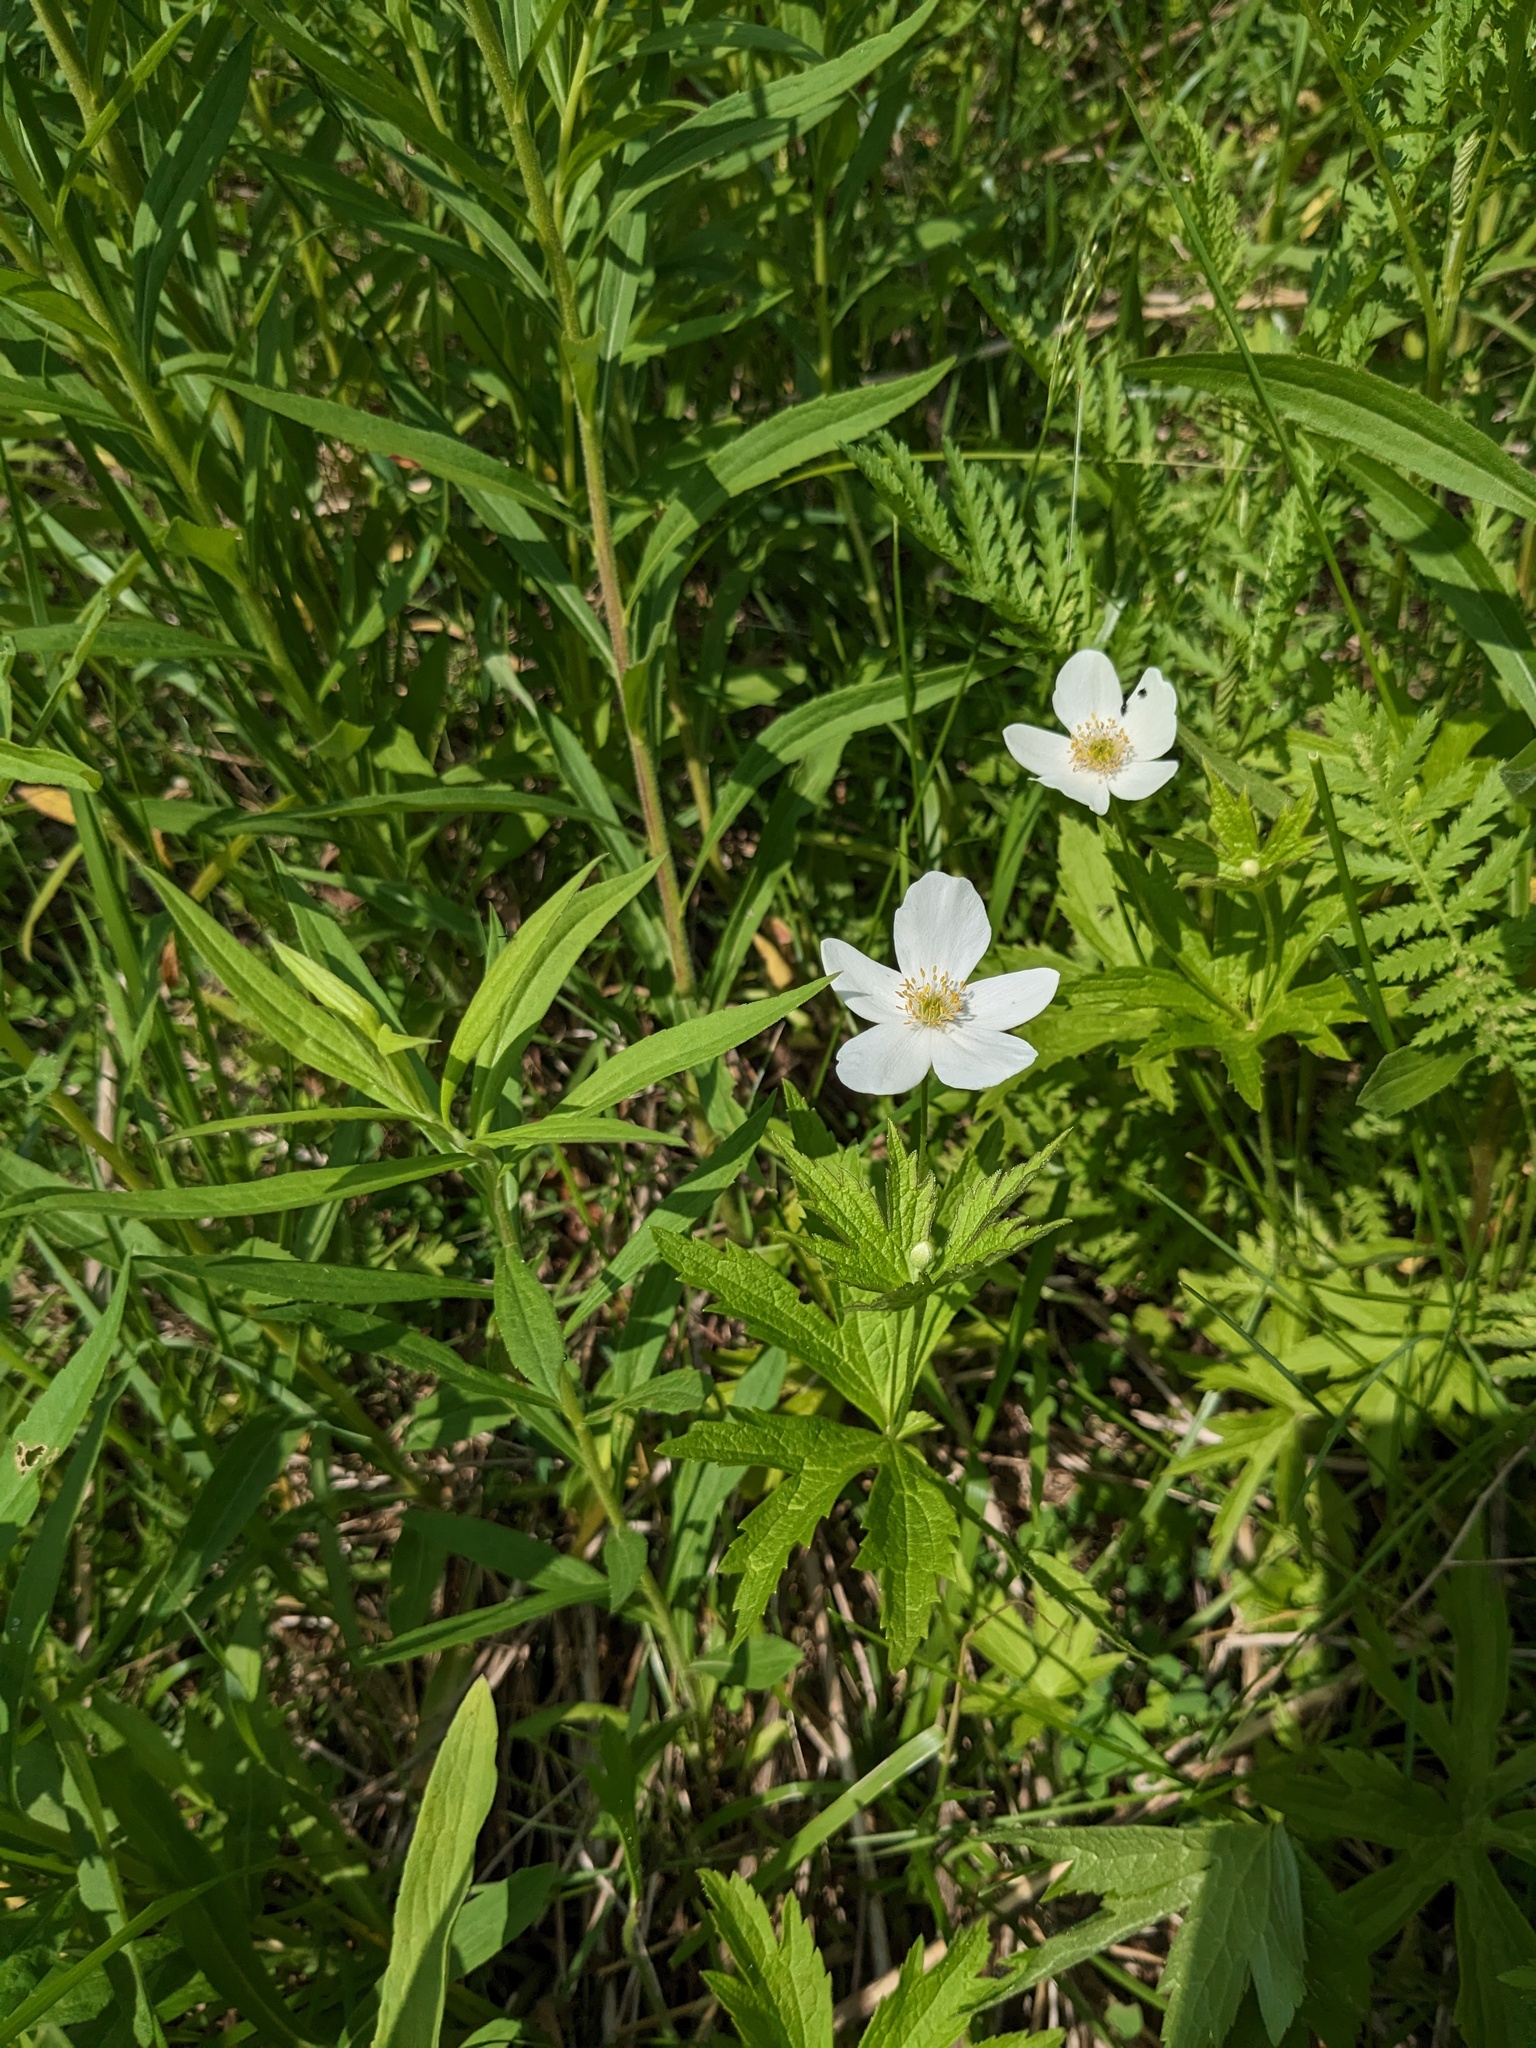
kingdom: Plantae
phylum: Tracheophyta
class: Magnoliopsida
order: Ranunculales
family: Ranunculaceae
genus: Anemonastrum
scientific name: Anemonastrum canadense
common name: Canada anemone
